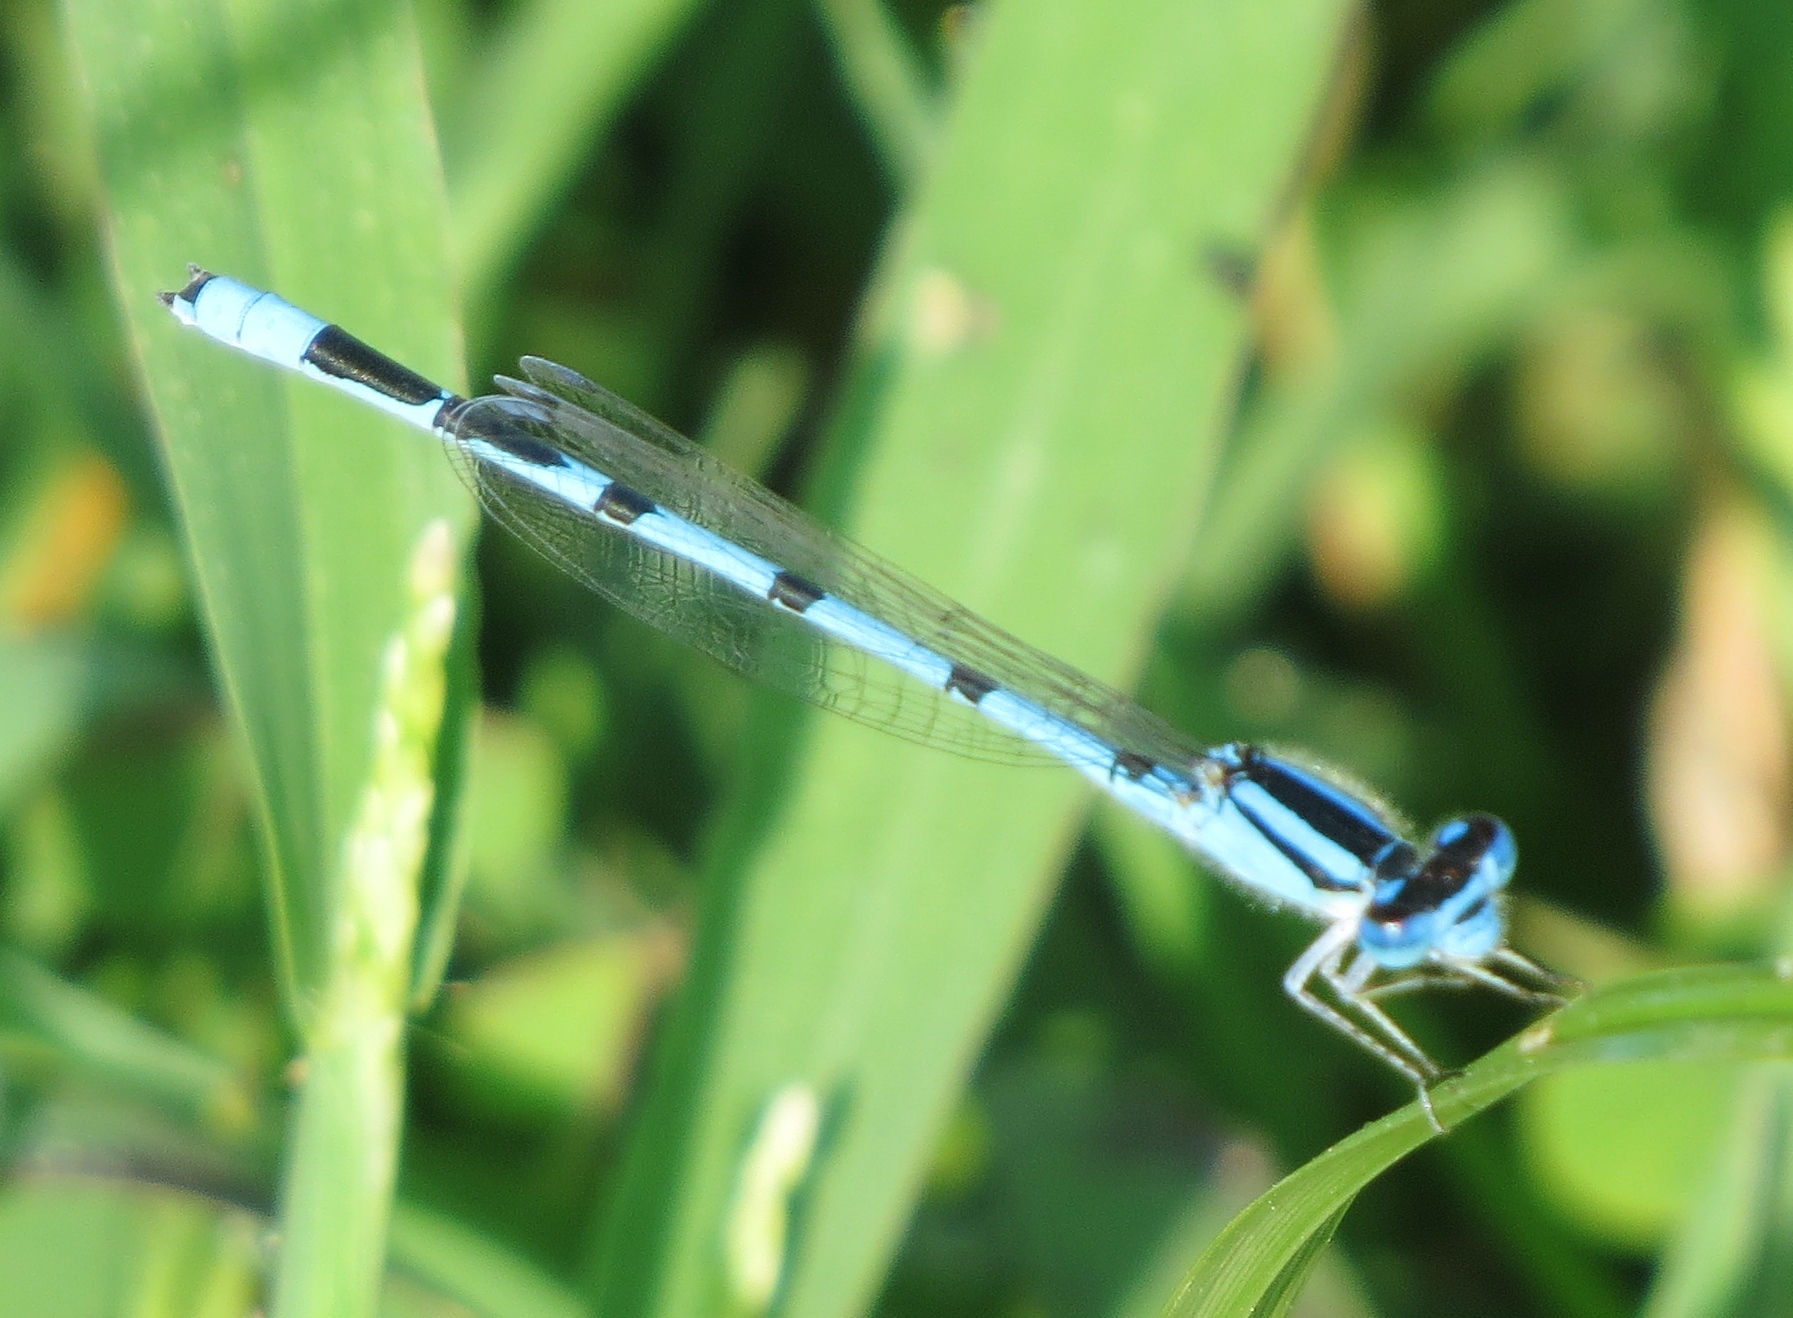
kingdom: Animalia
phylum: Arthropoda
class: Insecta
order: Odonata
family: Coenagrionidae
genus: Enallagma
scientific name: Enallagma civile
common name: Damselfly
